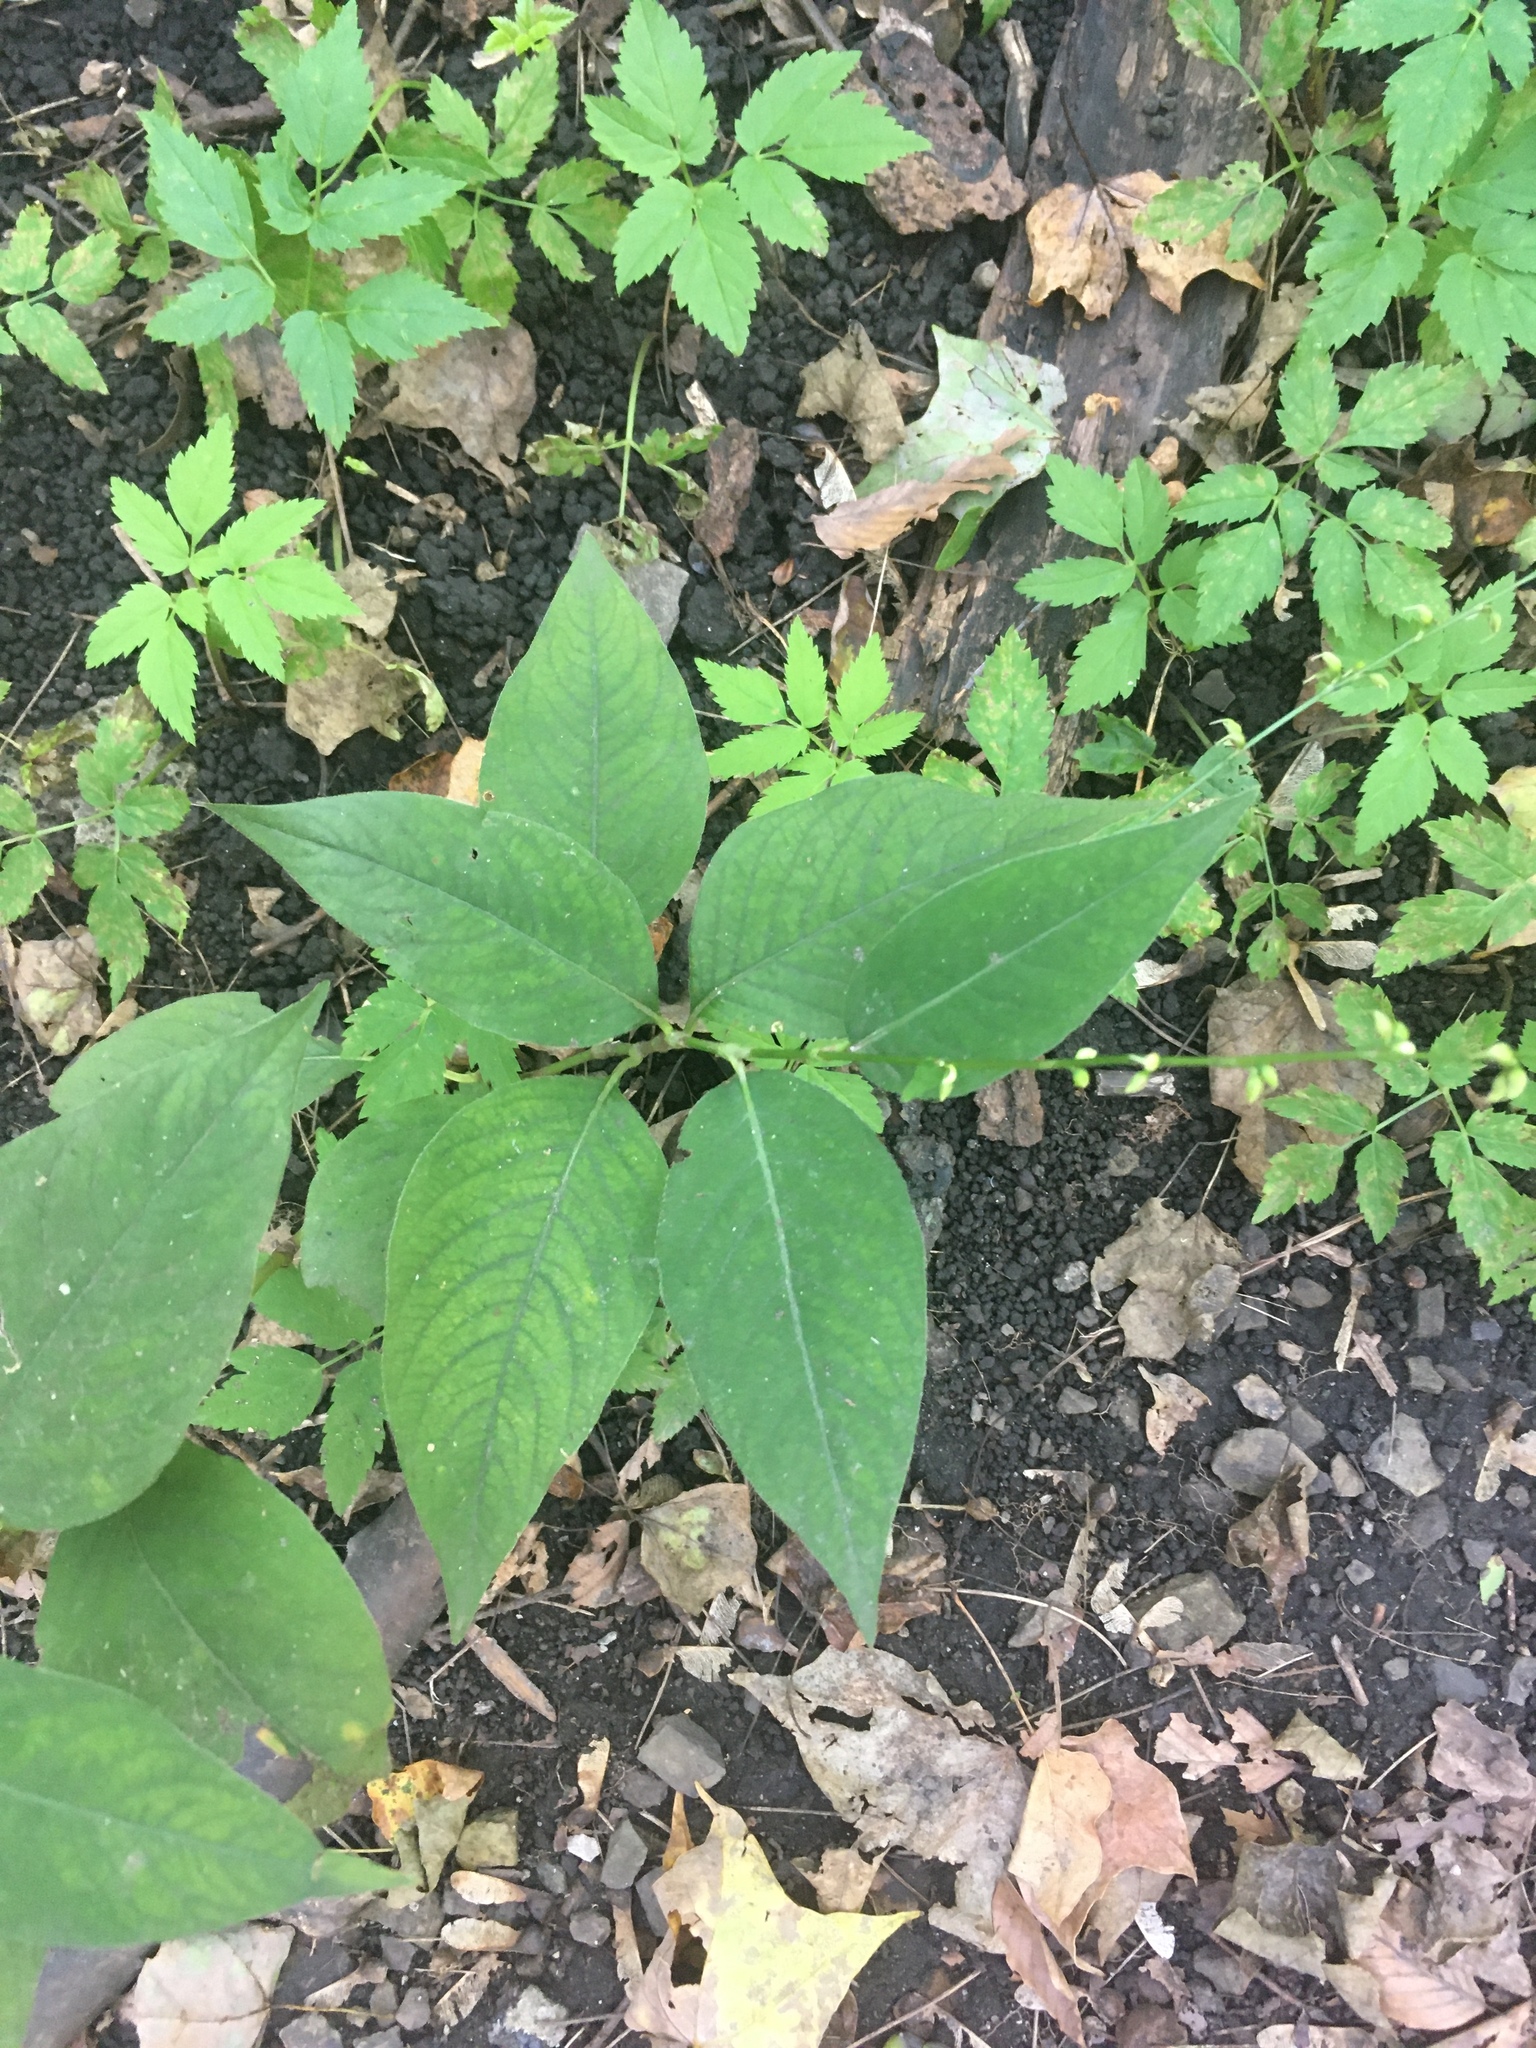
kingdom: Plantae
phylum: Tracheophyta
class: Magnoliopsida
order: Caryophyllales
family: Polygonaceae
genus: Persicaria
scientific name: Persicaria virginiana
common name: Jumpseed
